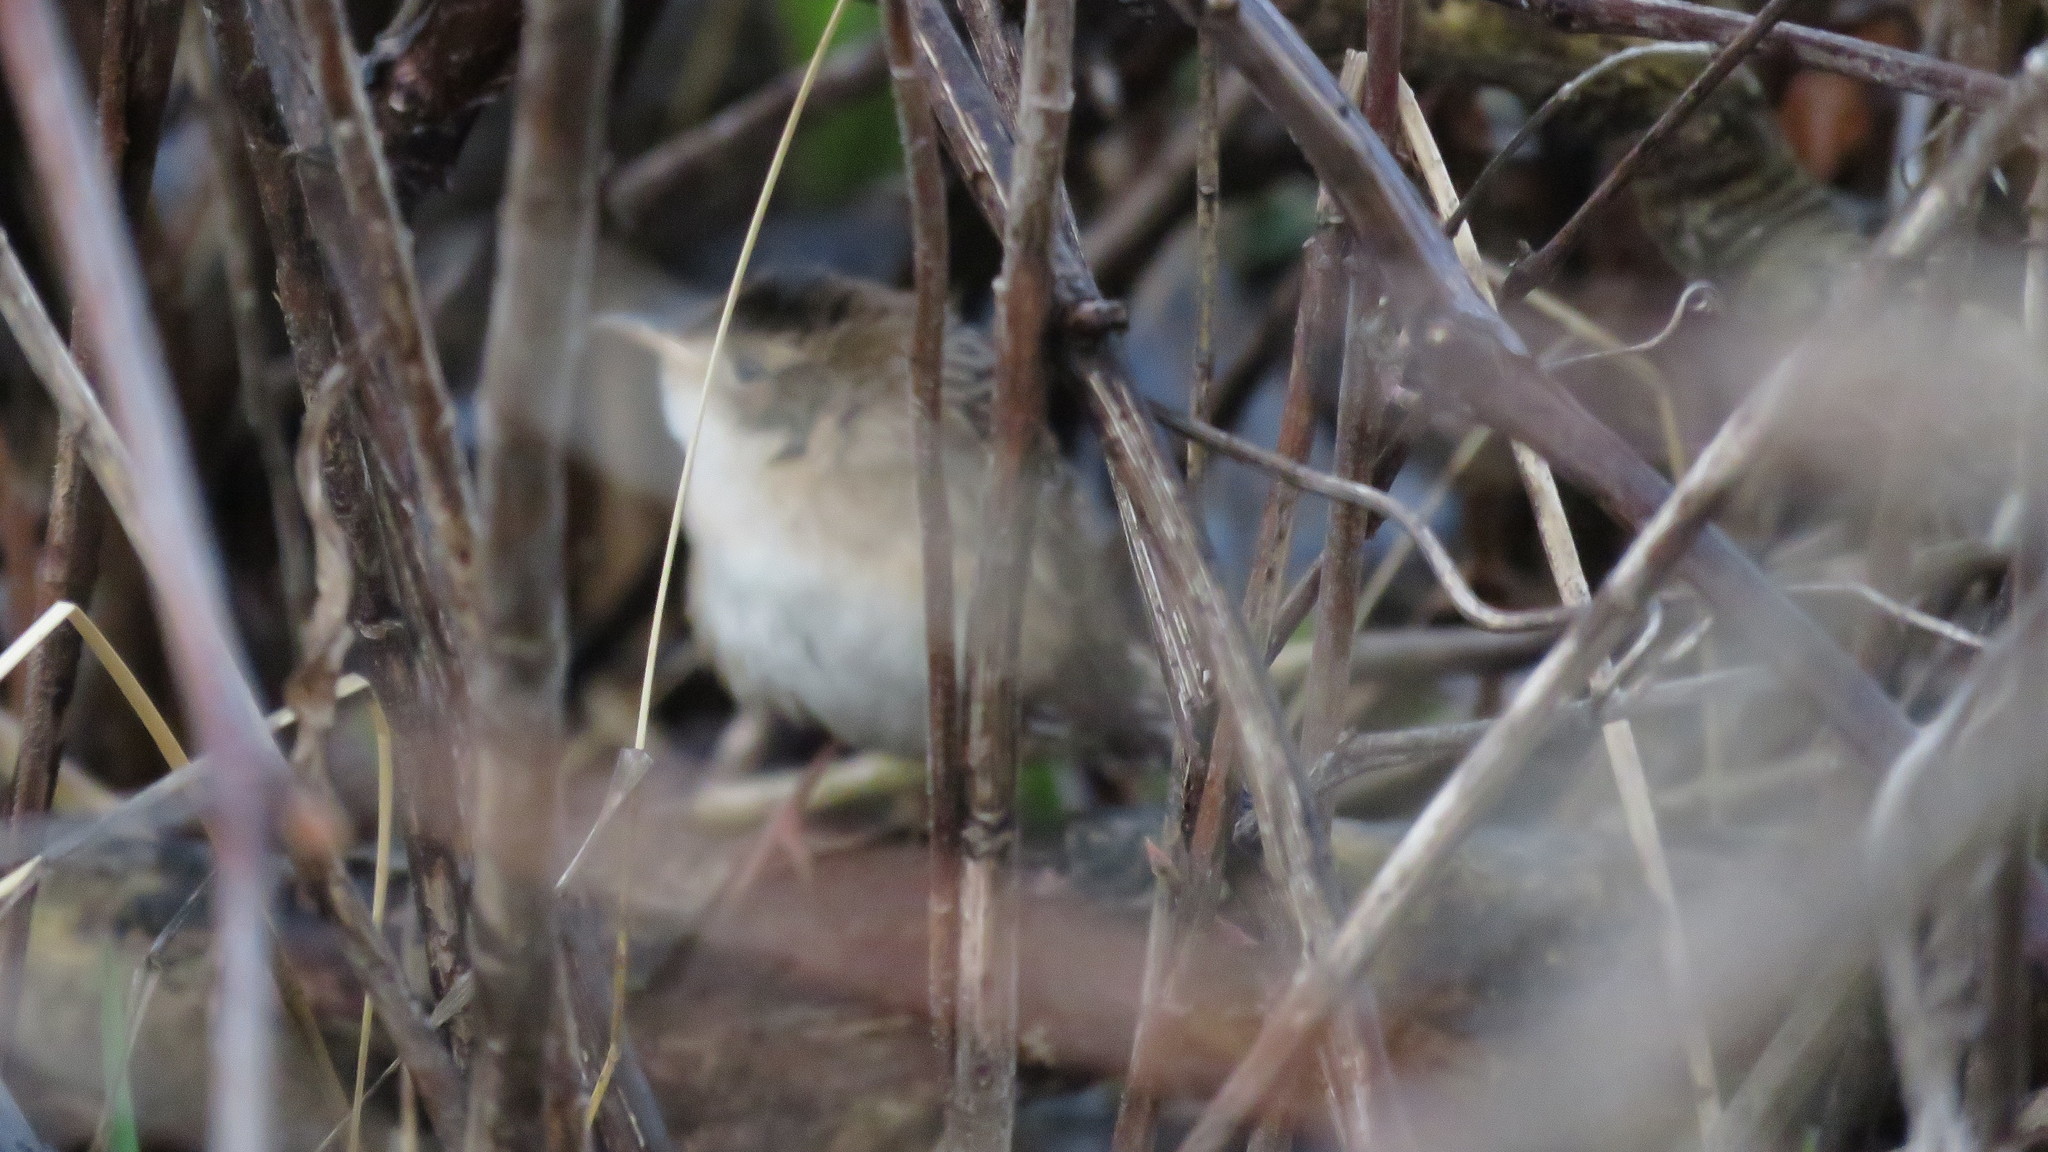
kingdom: Animalia
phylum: Chordata
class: Aves
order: Passeriformes
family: Troglodytidae
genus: Cistothorus
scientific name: Cistothorus platensis
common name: Sedge wren
